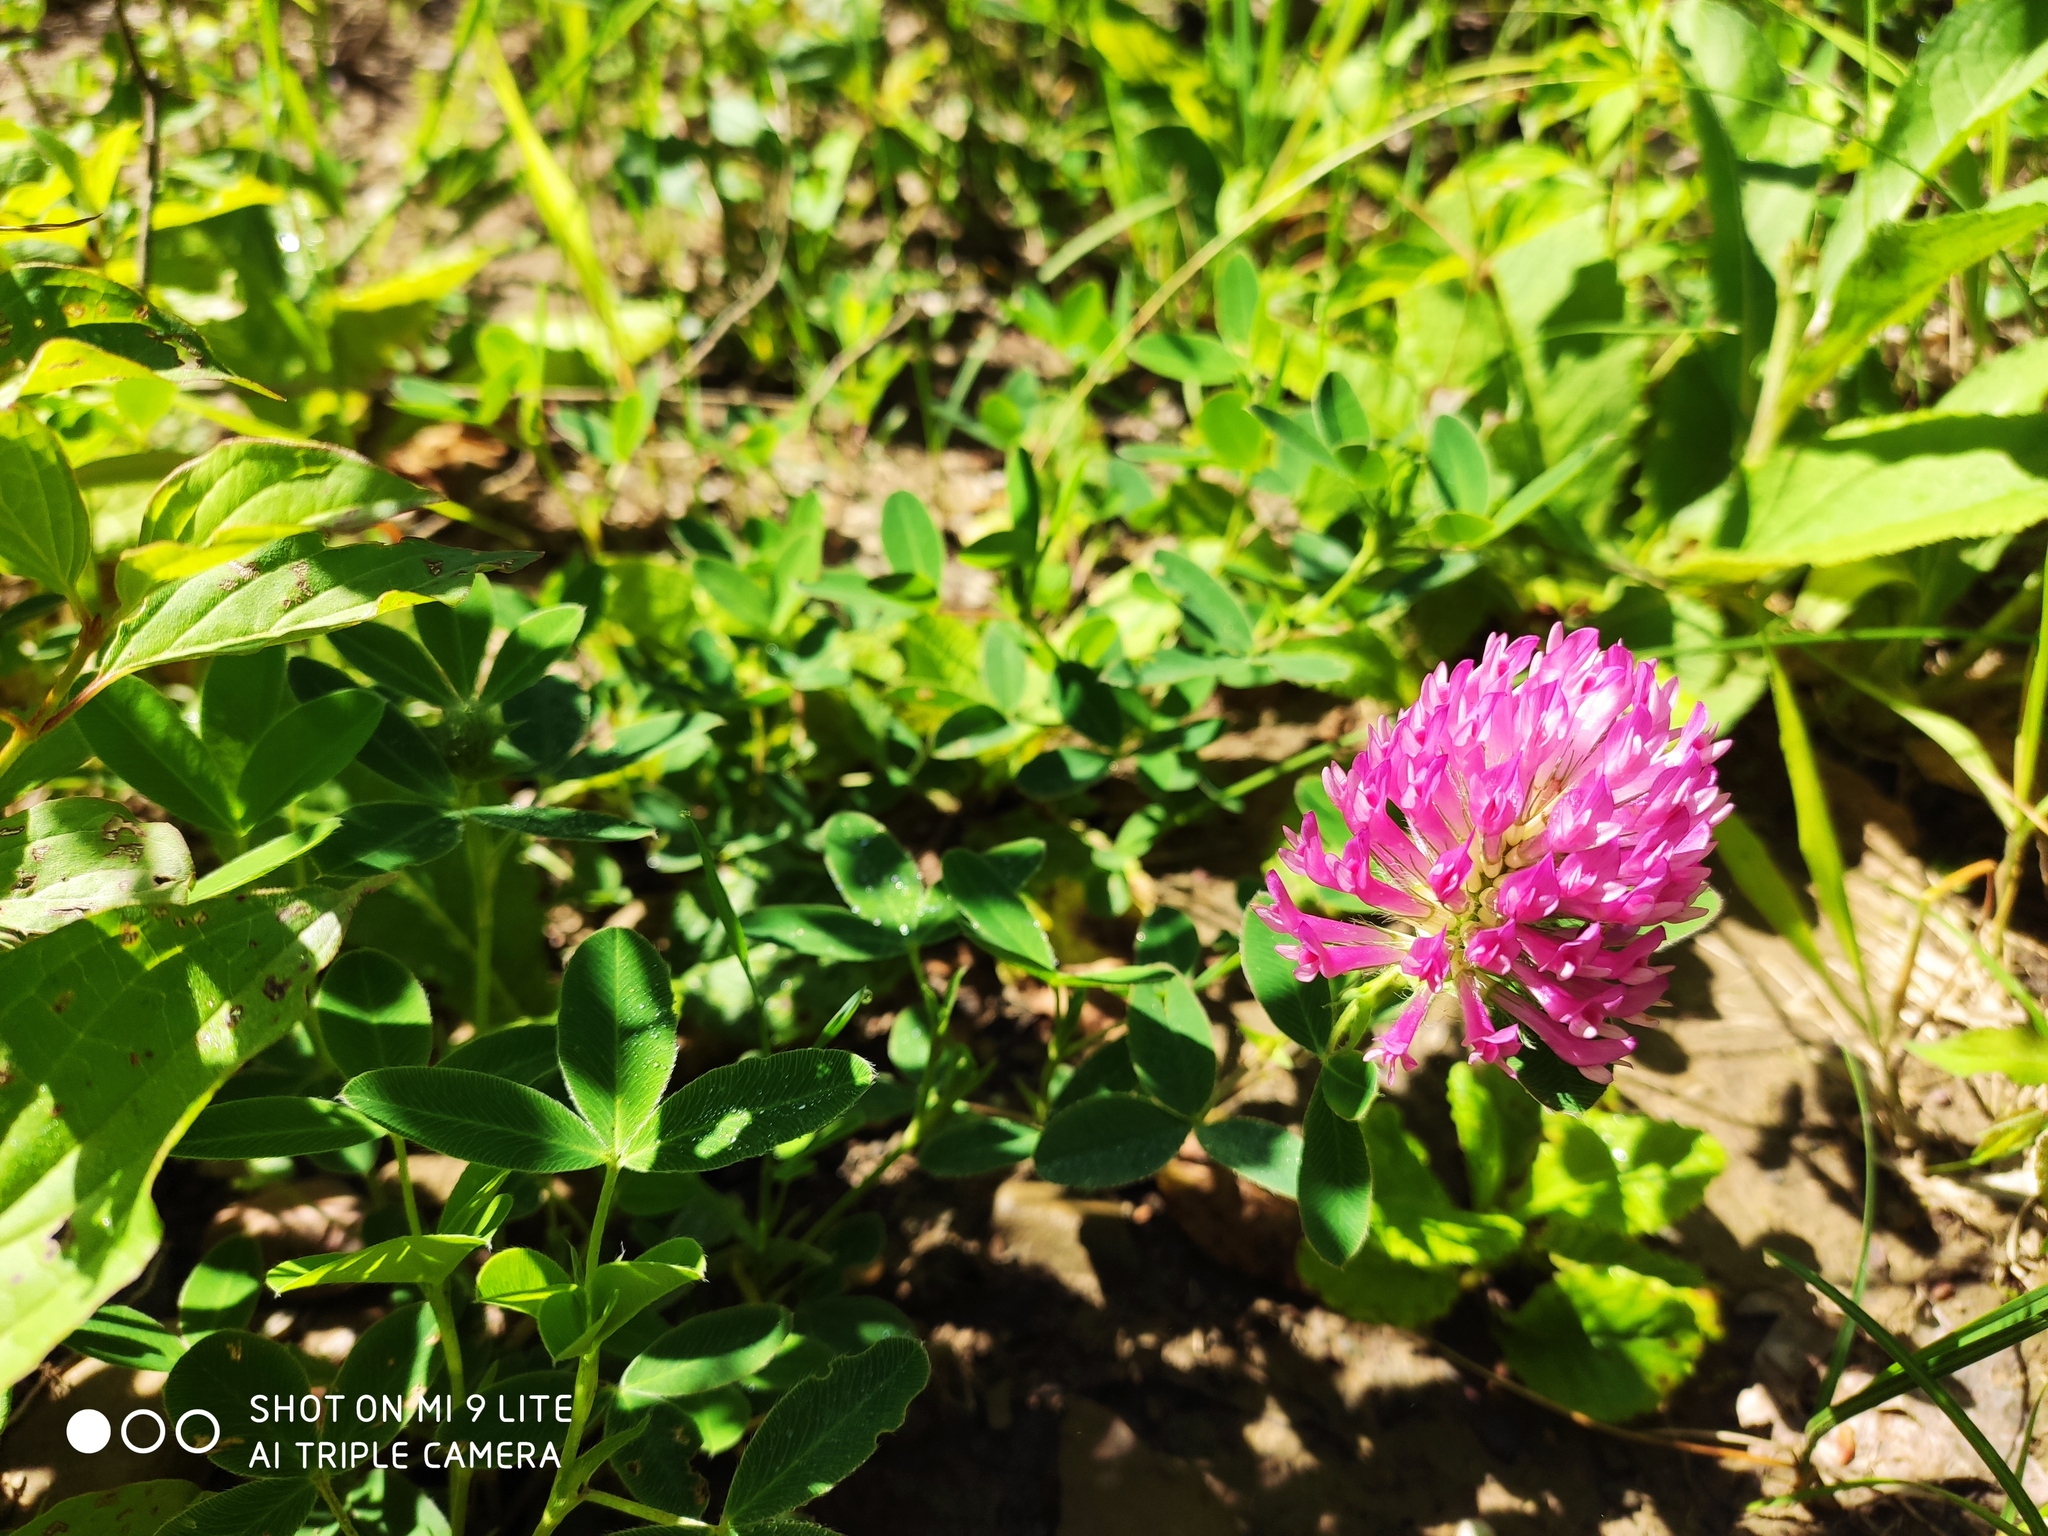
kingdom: Plantae
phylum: Tracheophyta
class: Magnoliopsida
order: Fabales
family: Fabaceae
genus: Trifolium
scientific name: Trifolium medium
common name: Zigzag clover
